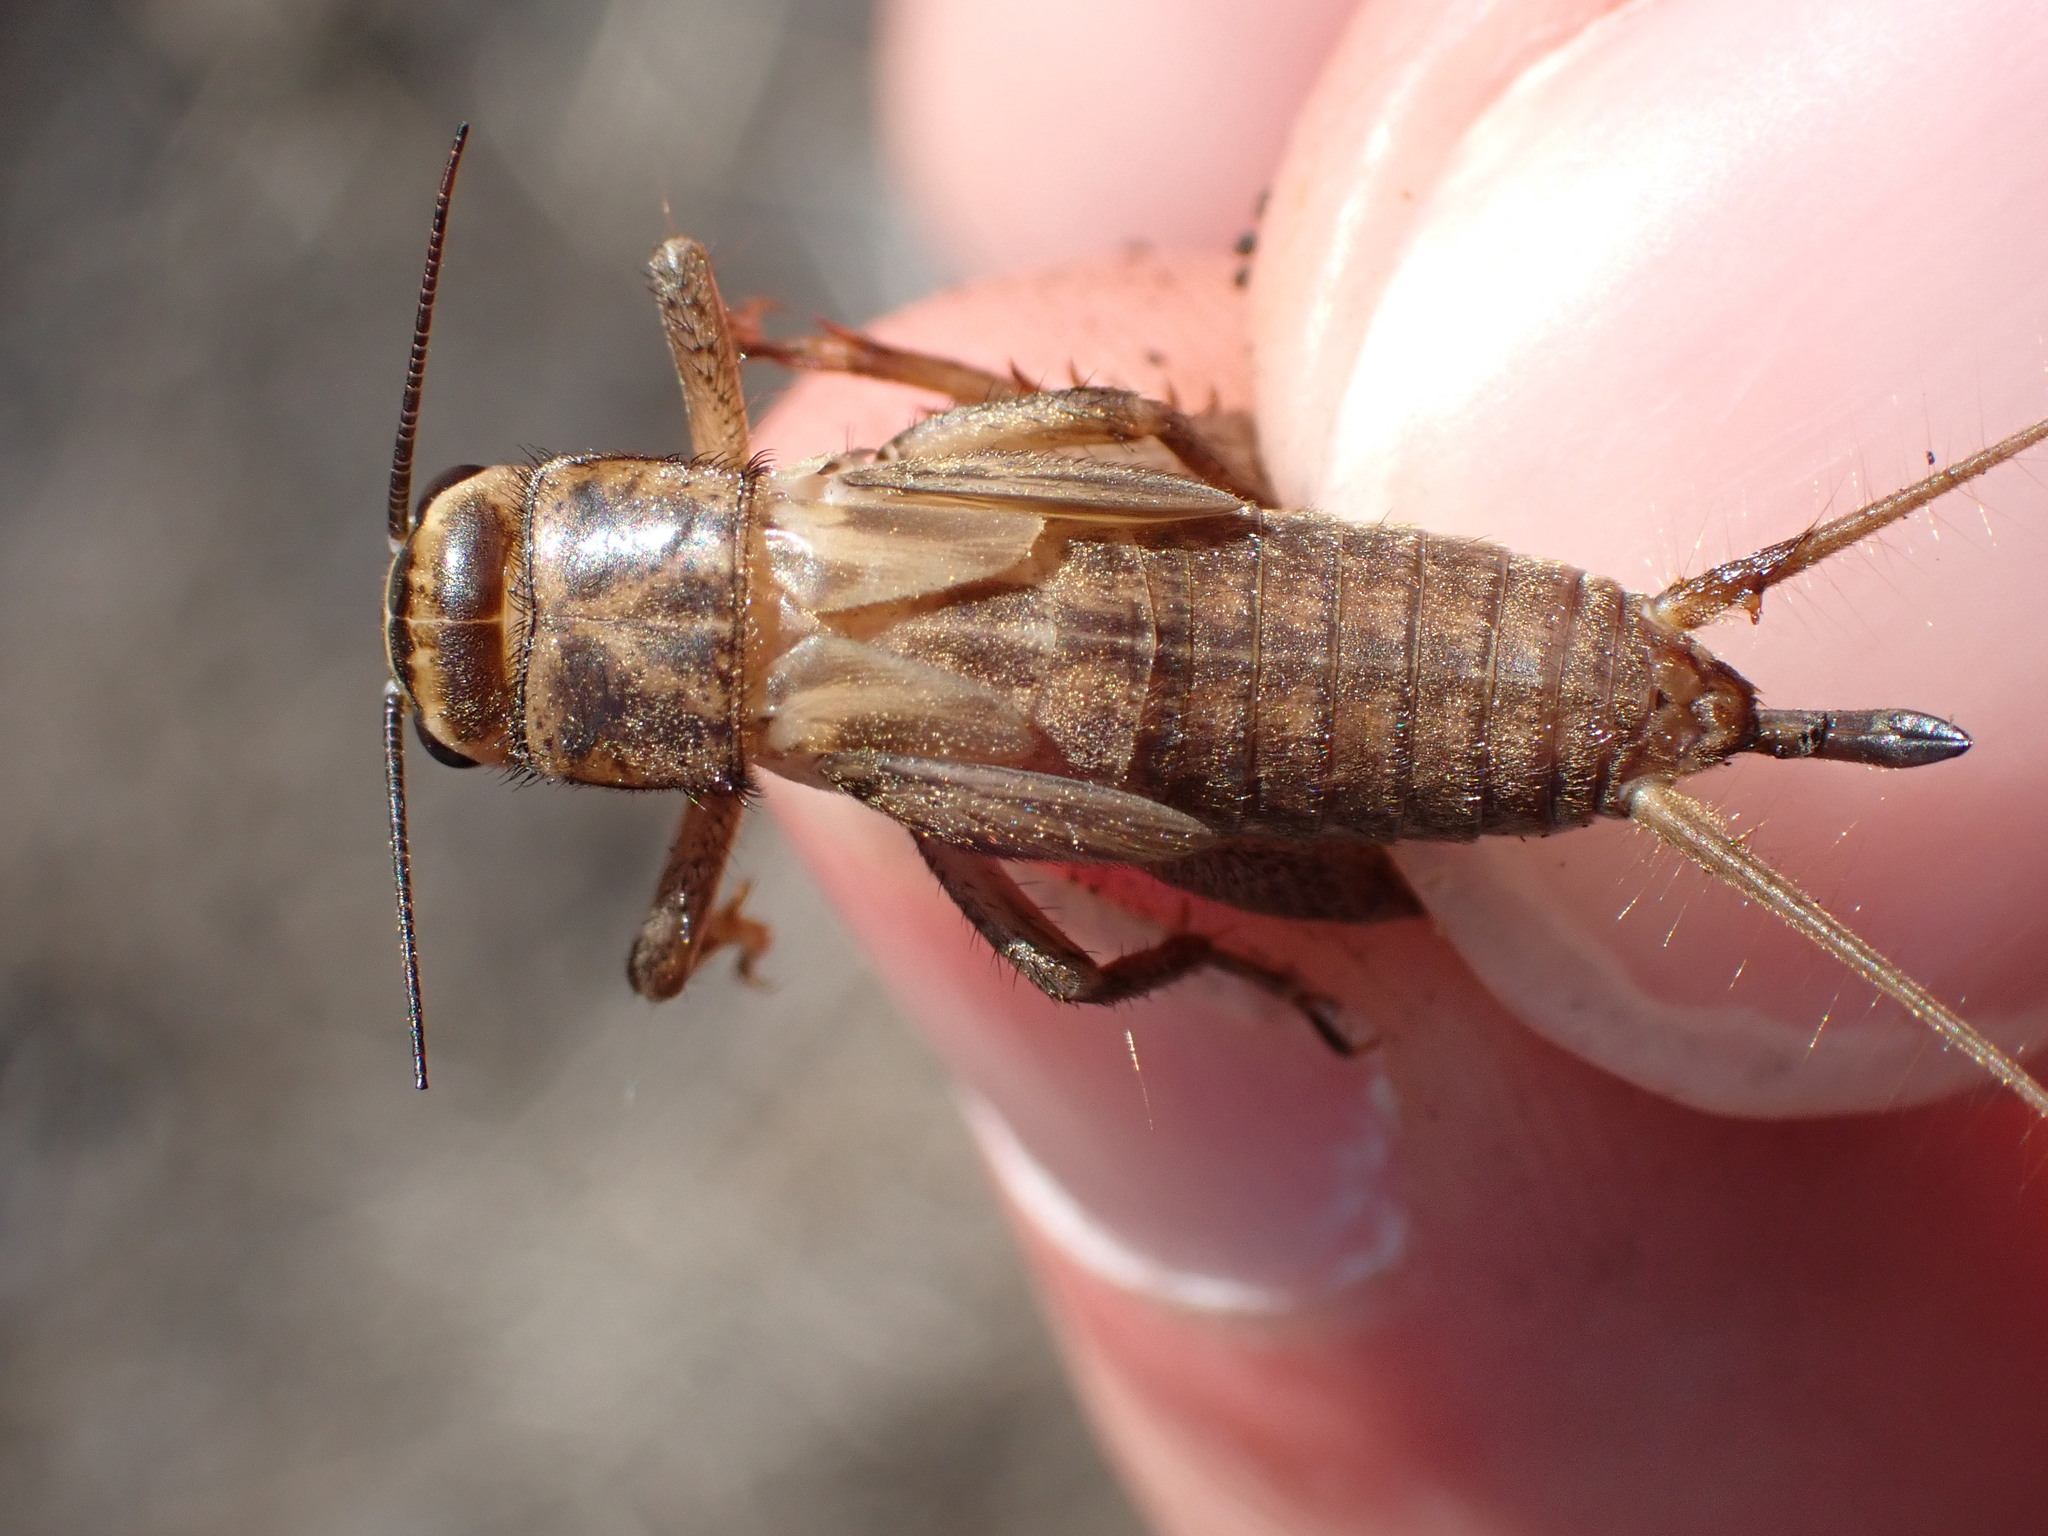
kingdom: Animalia
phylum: Arthropoda
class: Insecta
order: Orthoptera
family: Gryllidae
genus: Acheta
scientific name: Acheta domesticus
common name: House cricket
